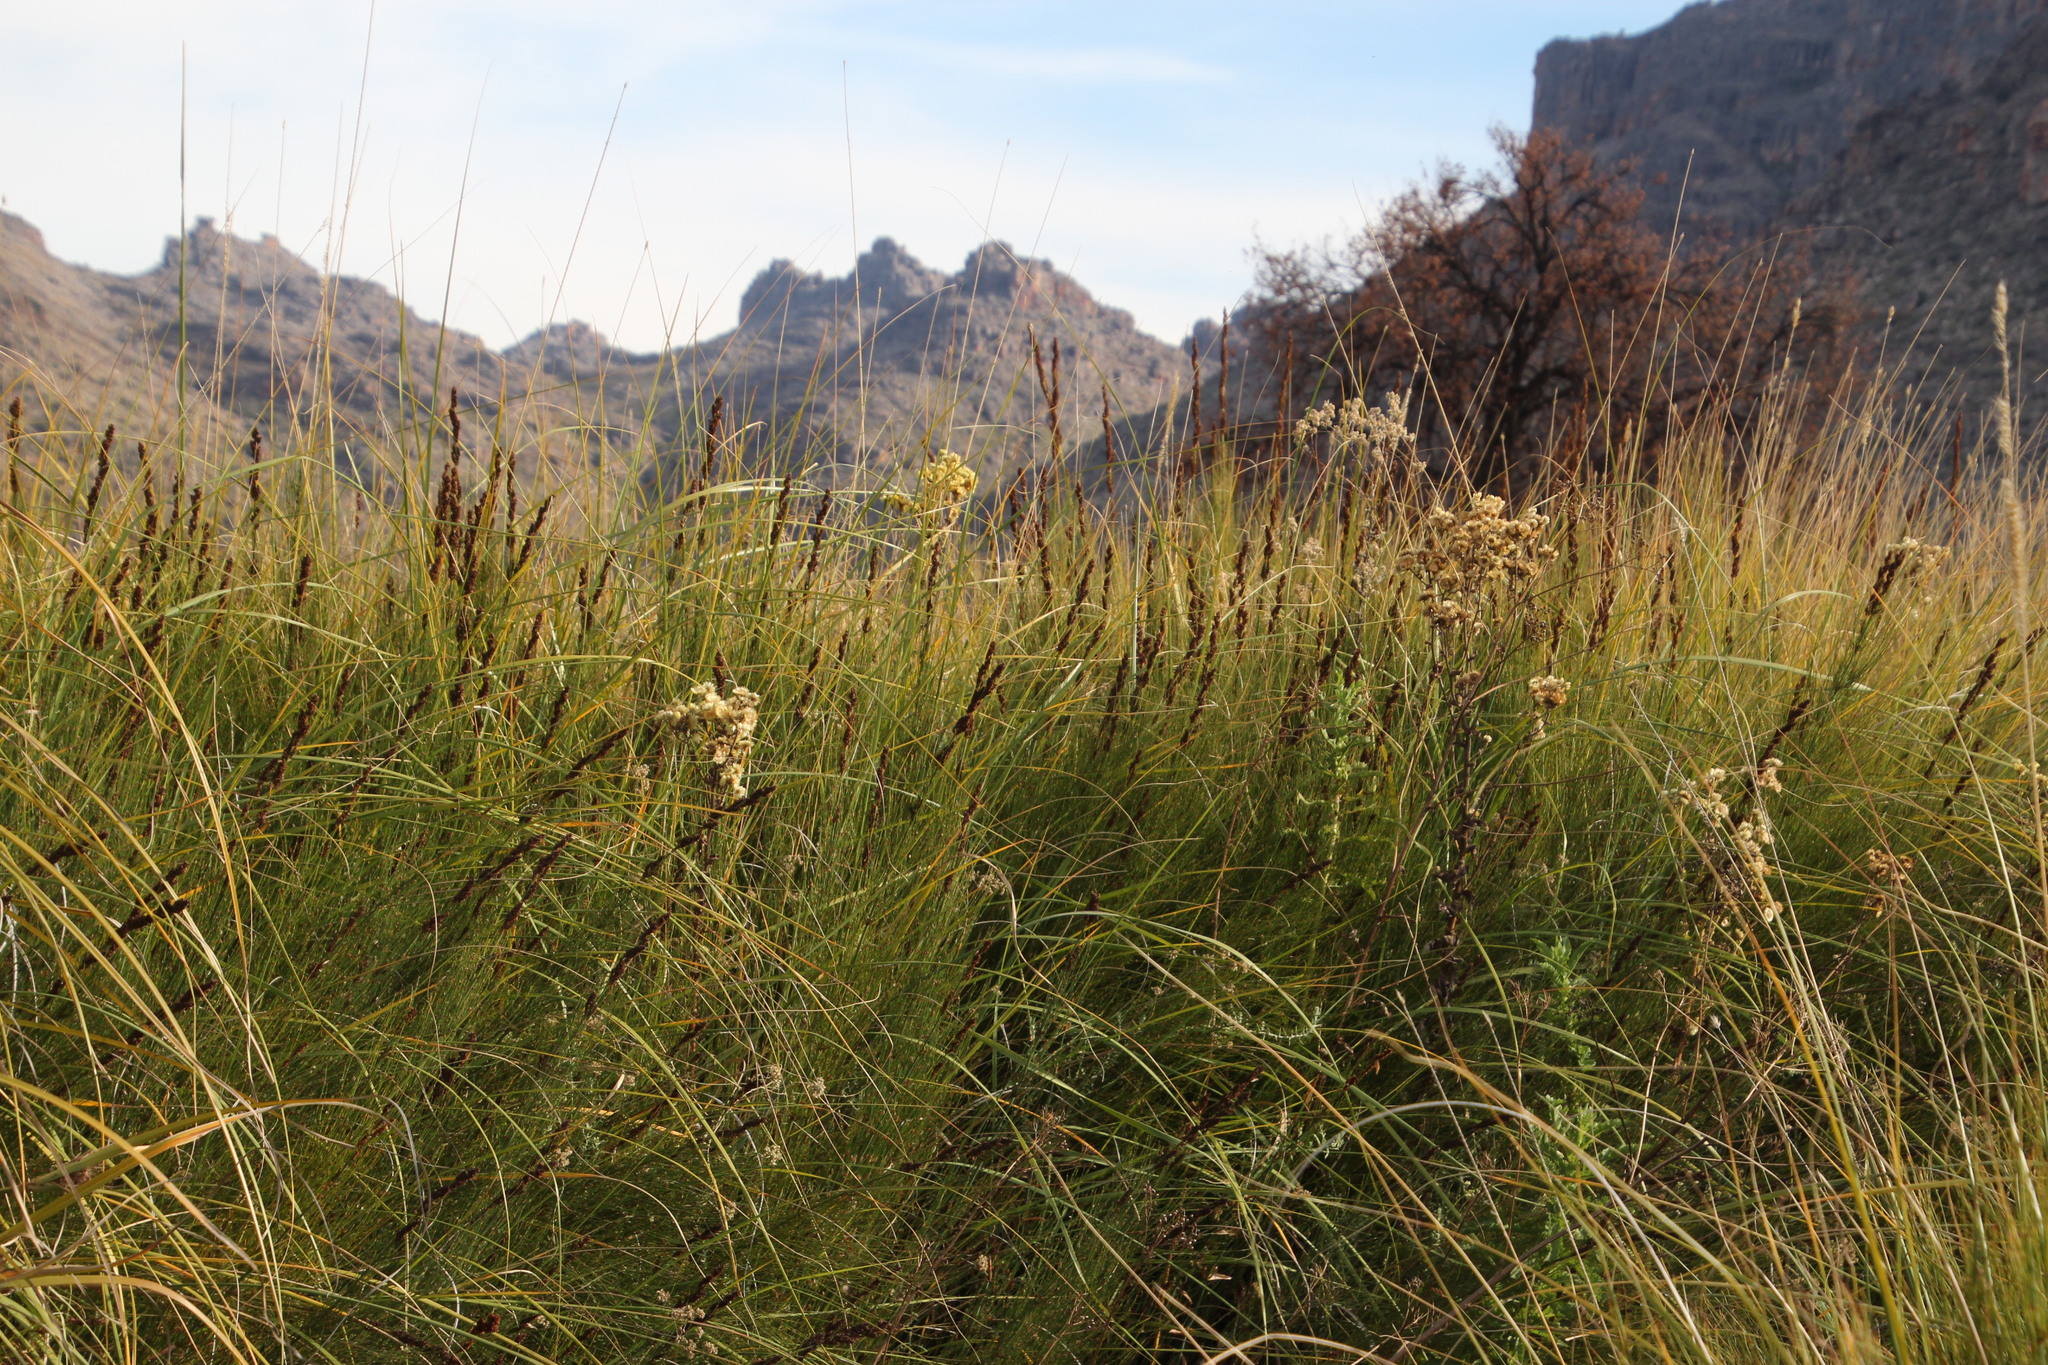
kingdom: Plantae
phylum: Tracheophyta
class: Magnoliopsida
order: Asterales
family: Asteraceae
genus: Helichrysum
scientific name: Helichrysum foetidum
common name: Stinking everlasting
